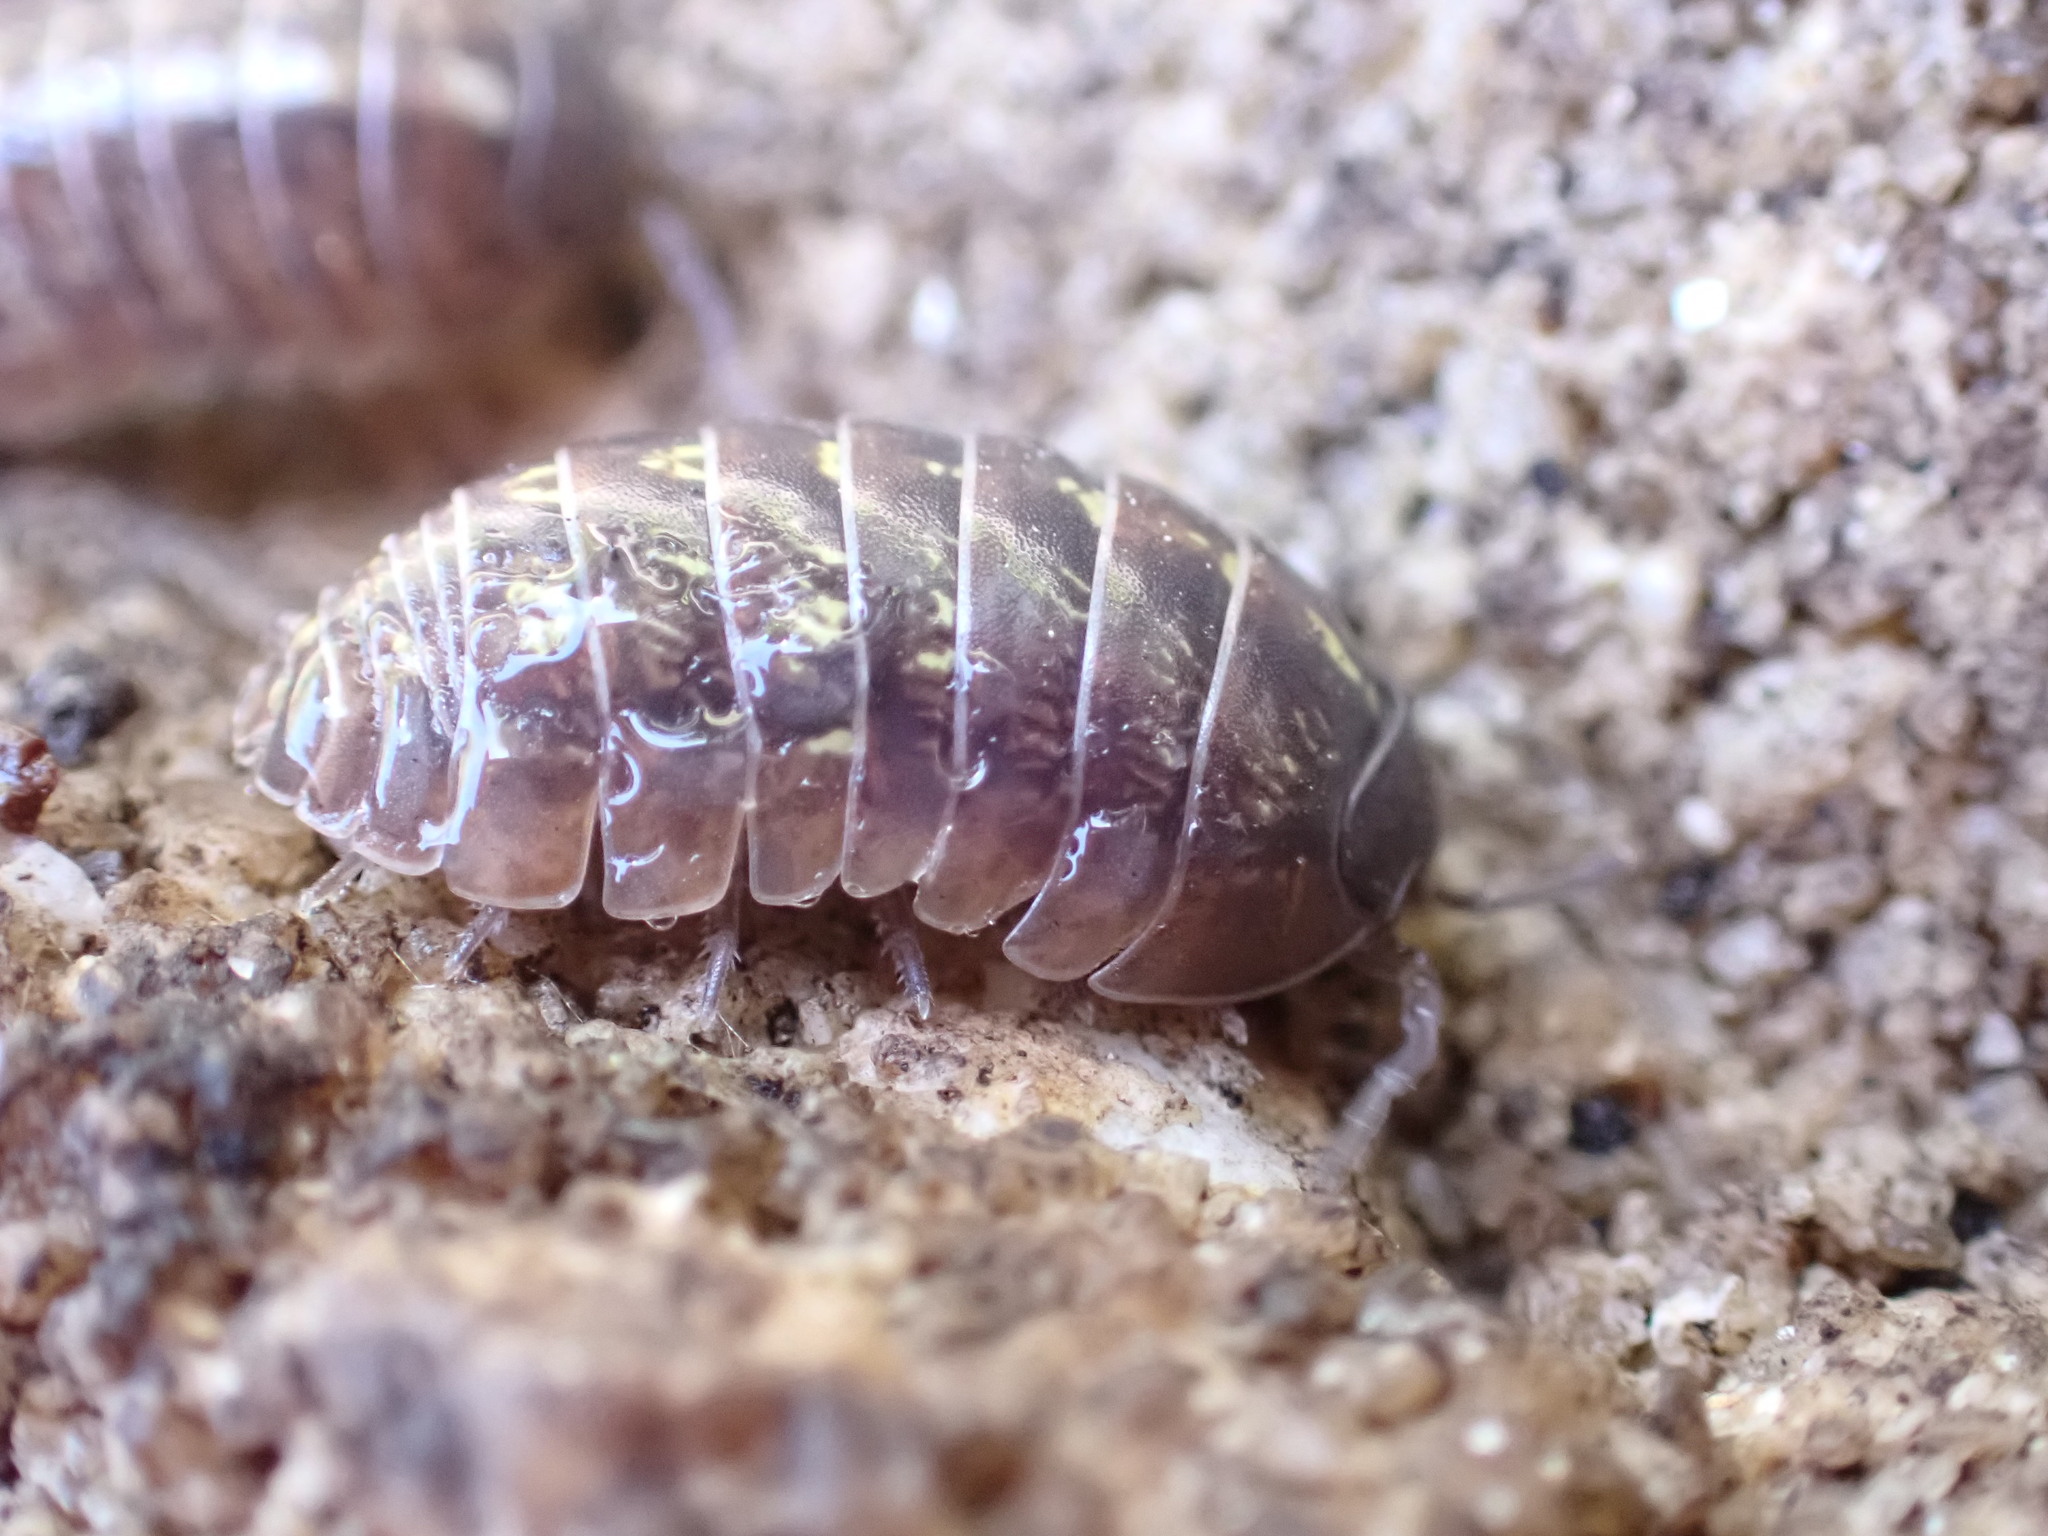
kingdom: Animalia
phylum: Arthropoda
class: Malacostraca
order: Isopoda
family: Armadillidiidae
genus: Armadillidium
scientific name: Armadillidium vulgare
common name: Common pill woodlouse
